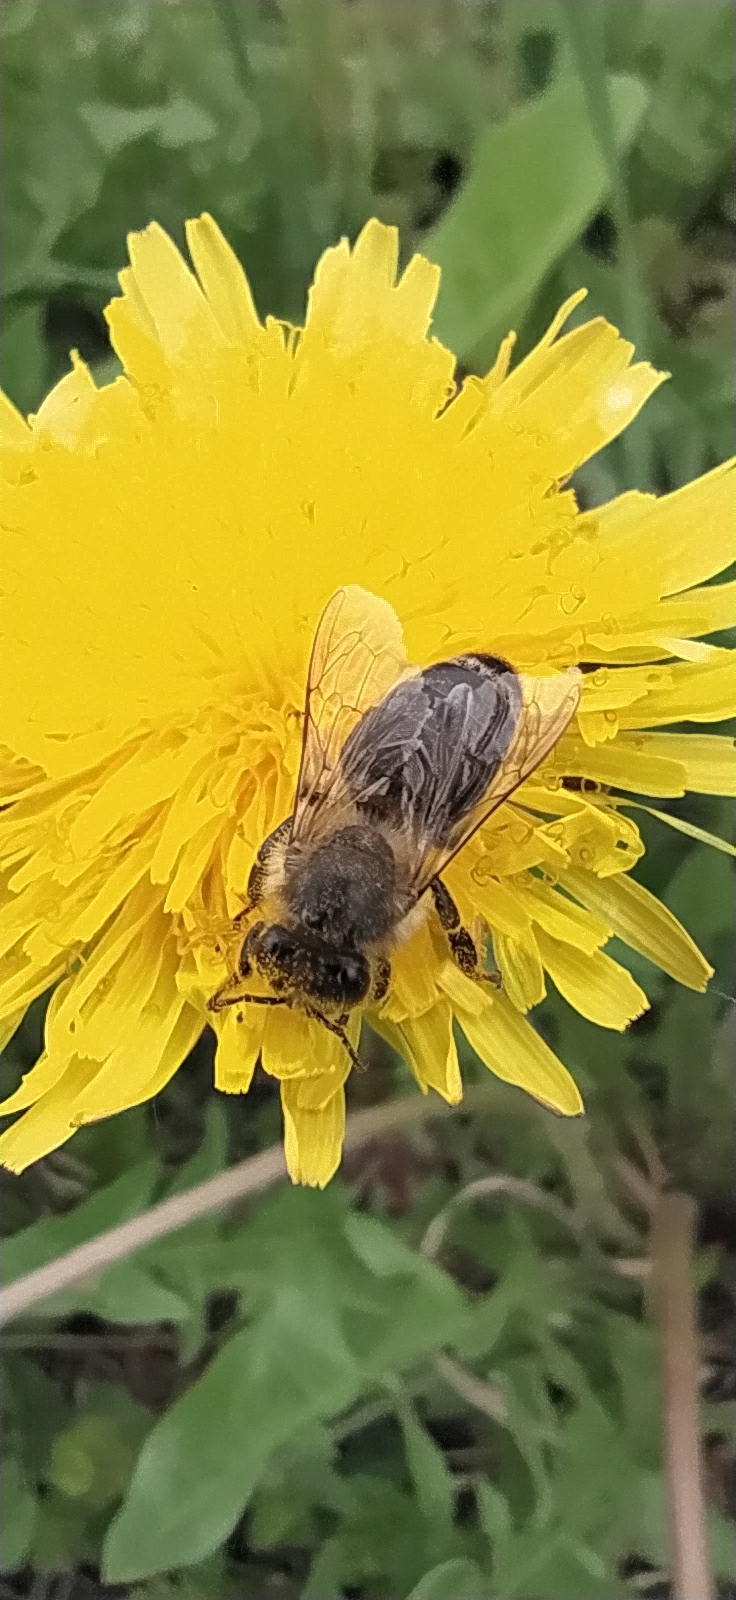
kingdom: Animalia
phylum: Arthropoda
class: Insecta
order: Hymenoptera
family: Apidae
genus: Apis
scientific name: Apis mellifera
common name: Honey bee
